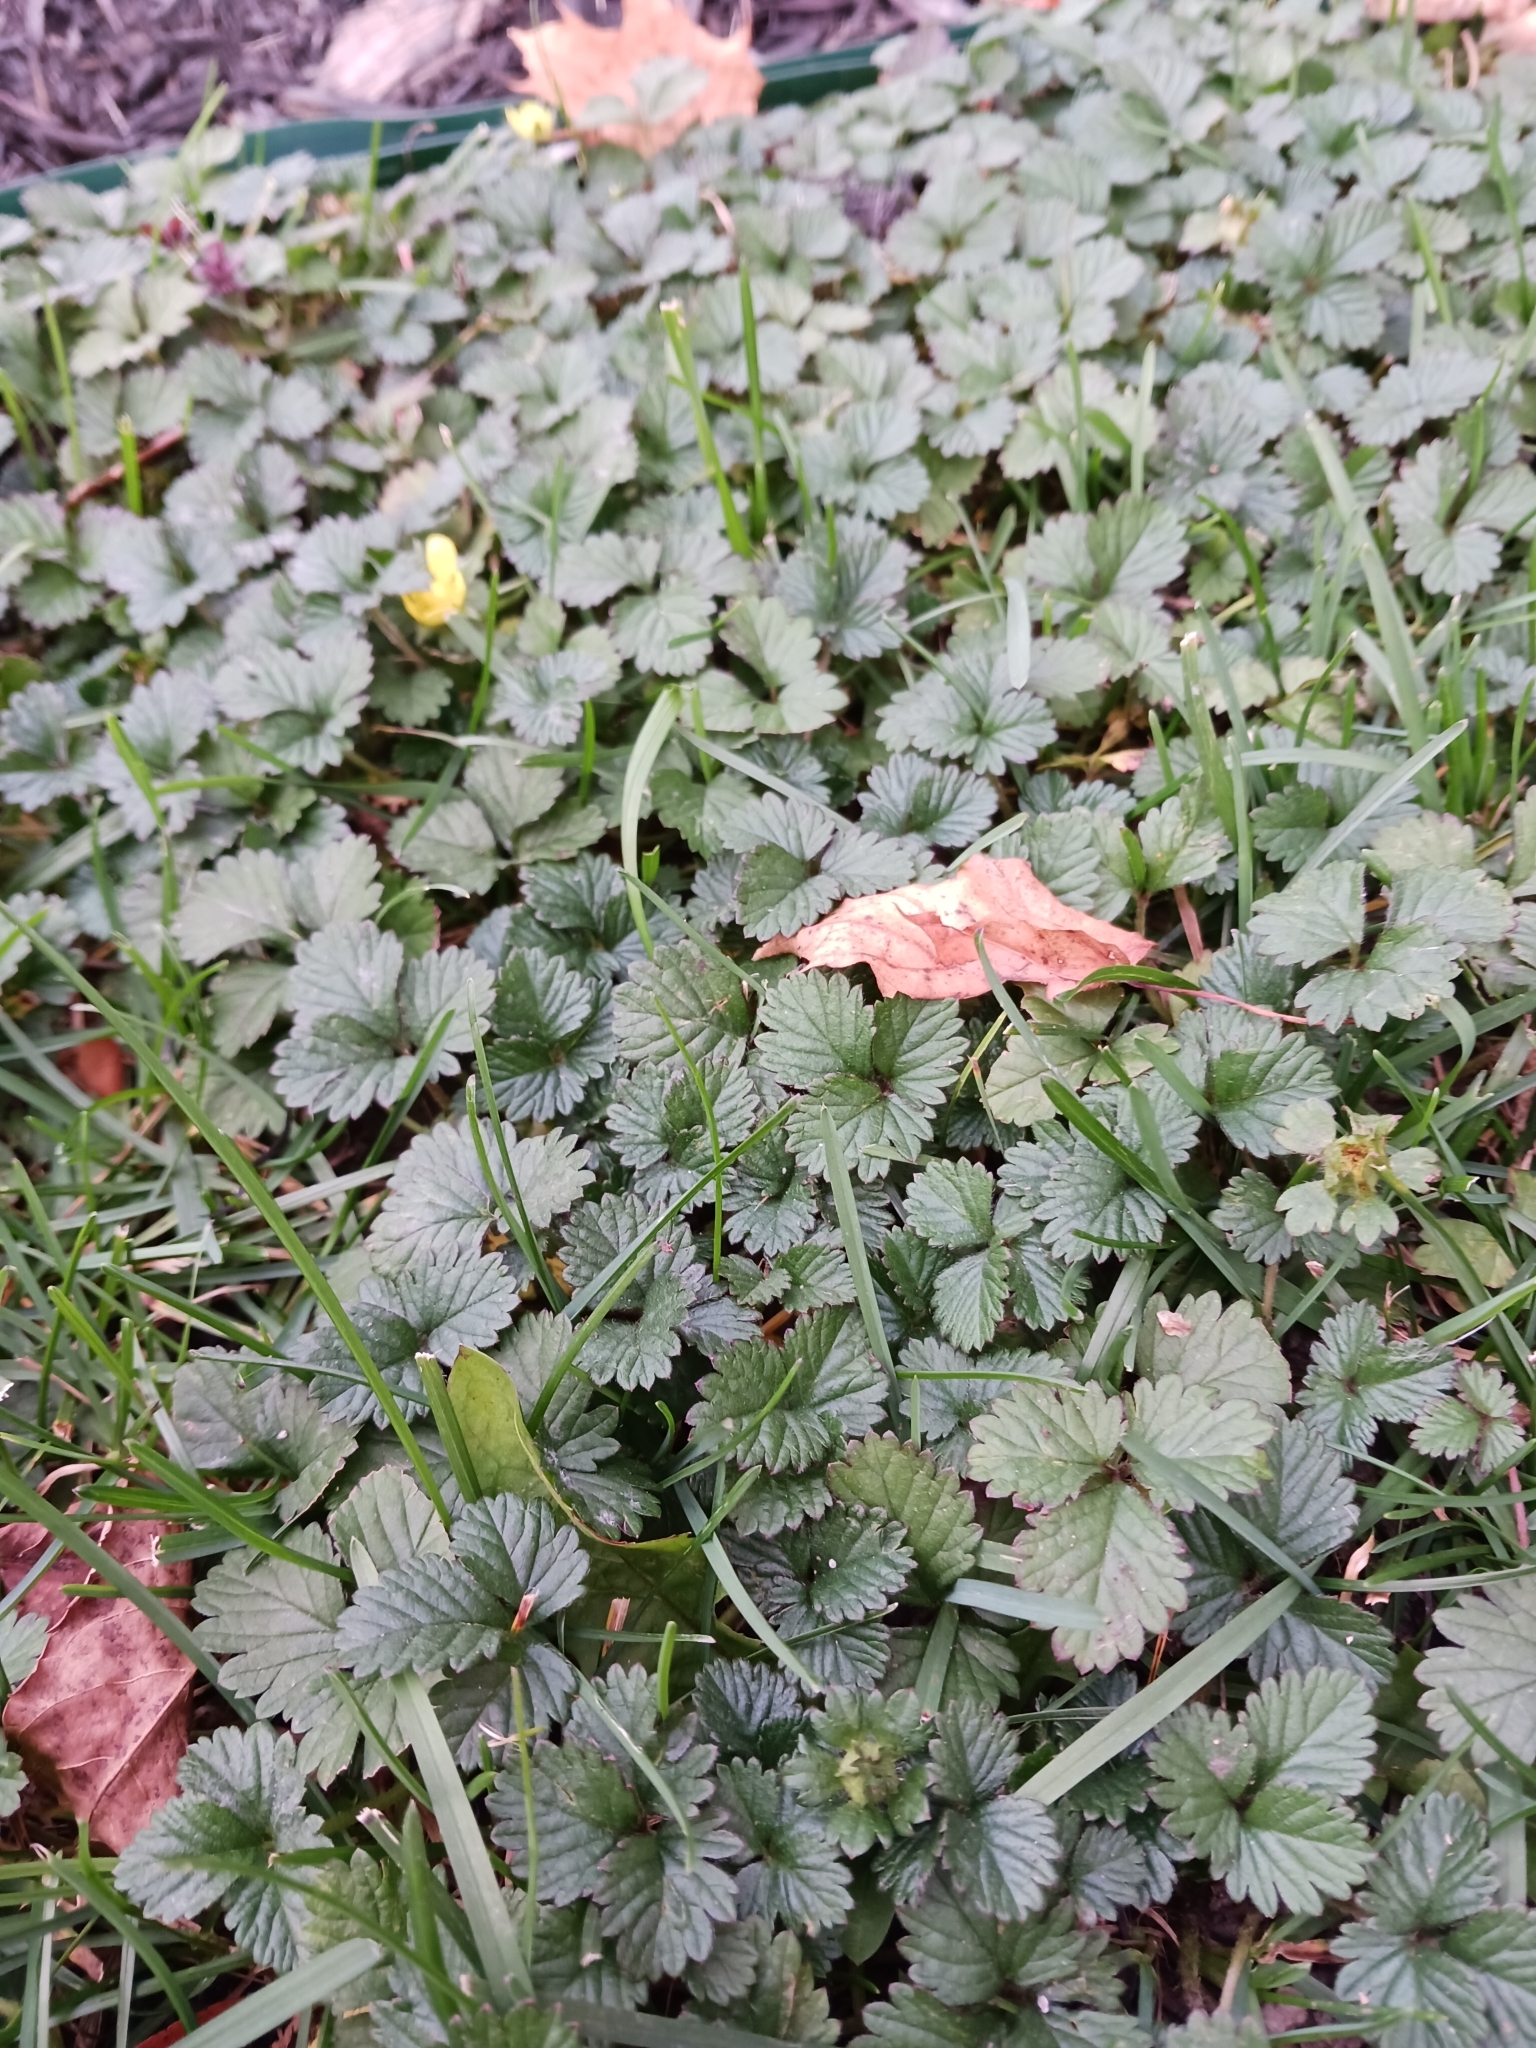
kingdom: Plantae
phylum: Tracheophyta
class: Magnoliopsida
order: Rosales
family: Rosaceae
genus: Potentilla
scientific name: Potentilla indica
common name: Yellow-flowered strawberry
